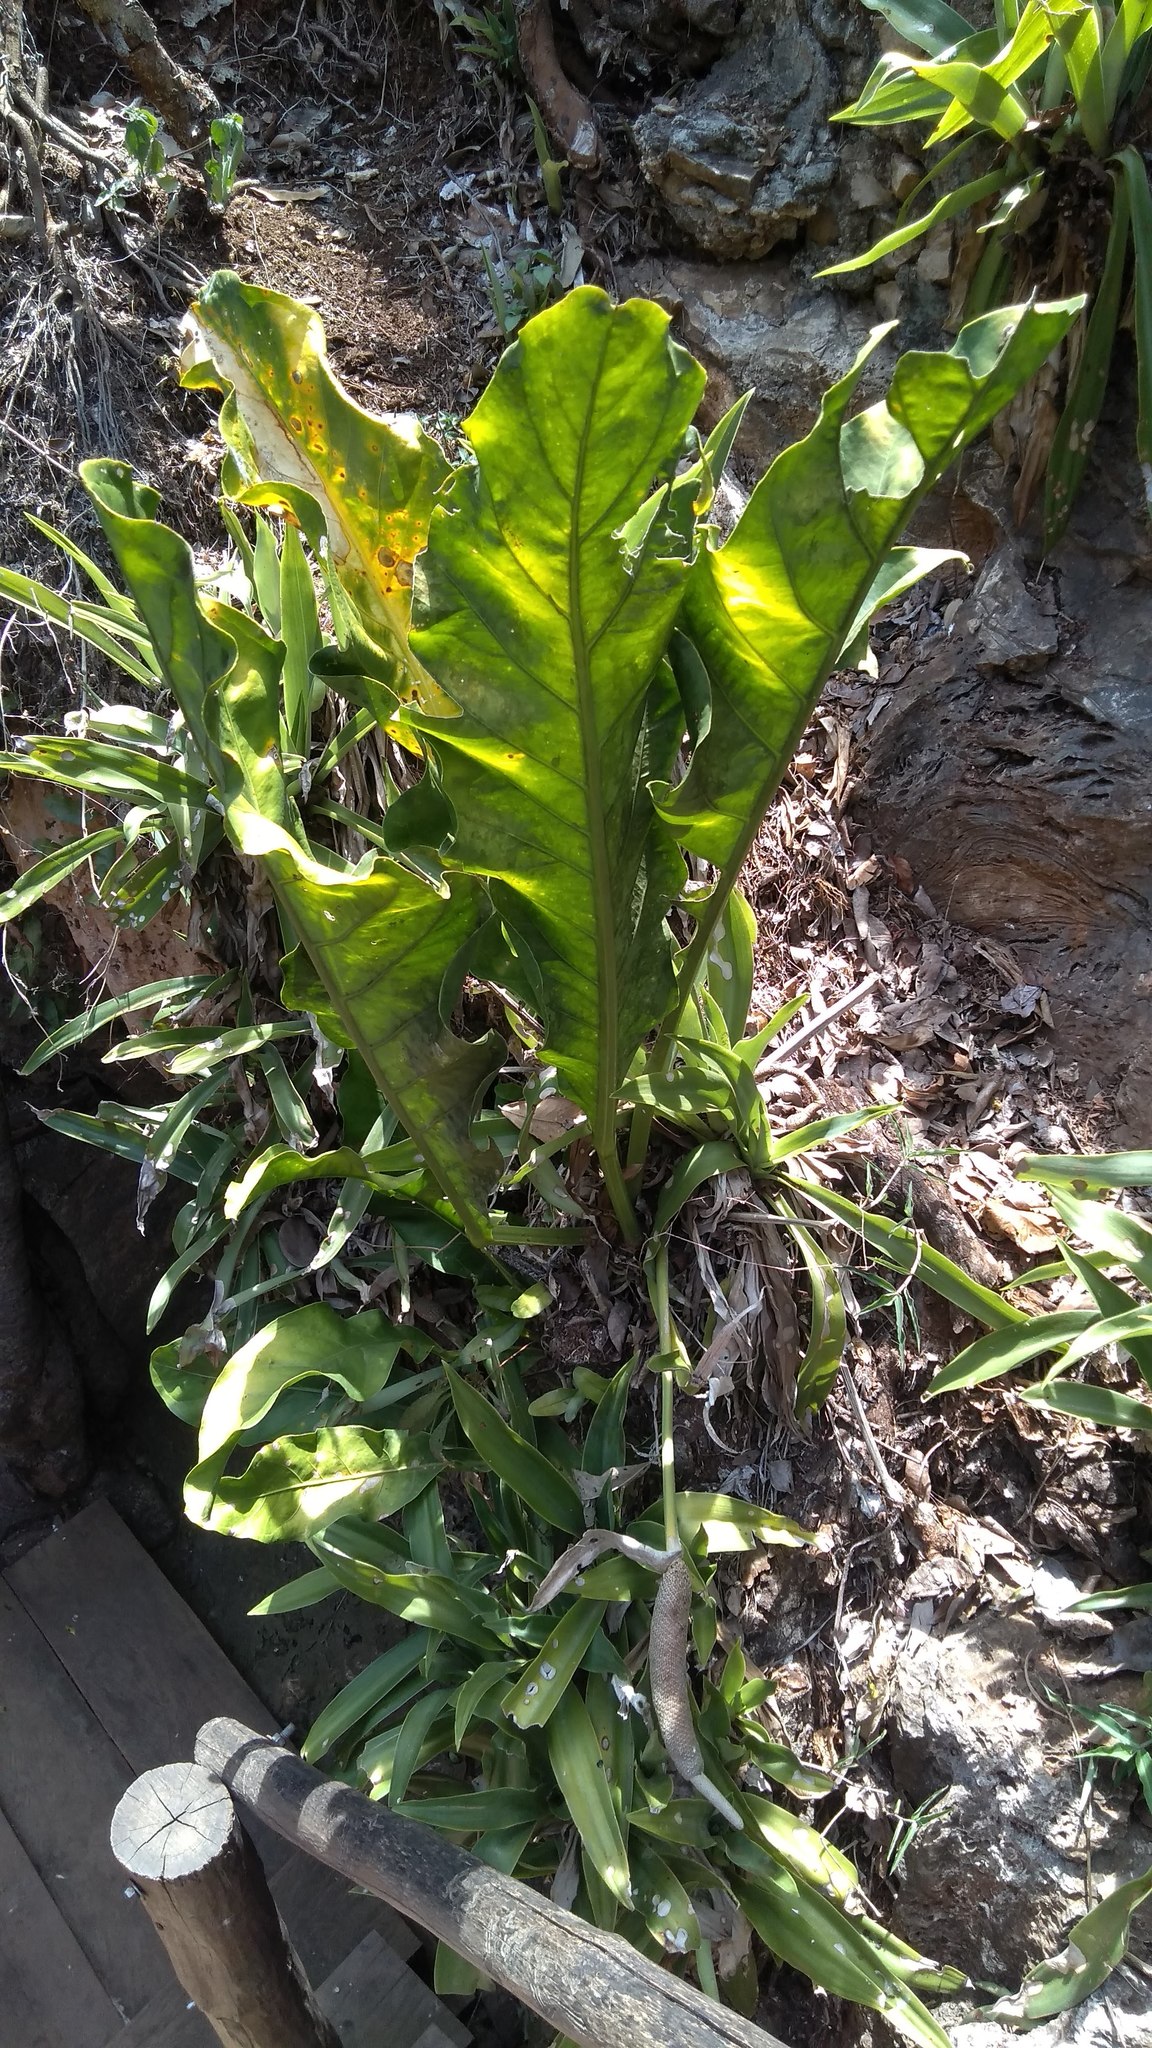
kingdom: Plantae
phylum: Tracheophyta
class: Liliopsida
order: Alismatales
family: Araceae
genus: Anthurium
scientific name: Anthurium schlechtendalii
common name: Laceleaf
